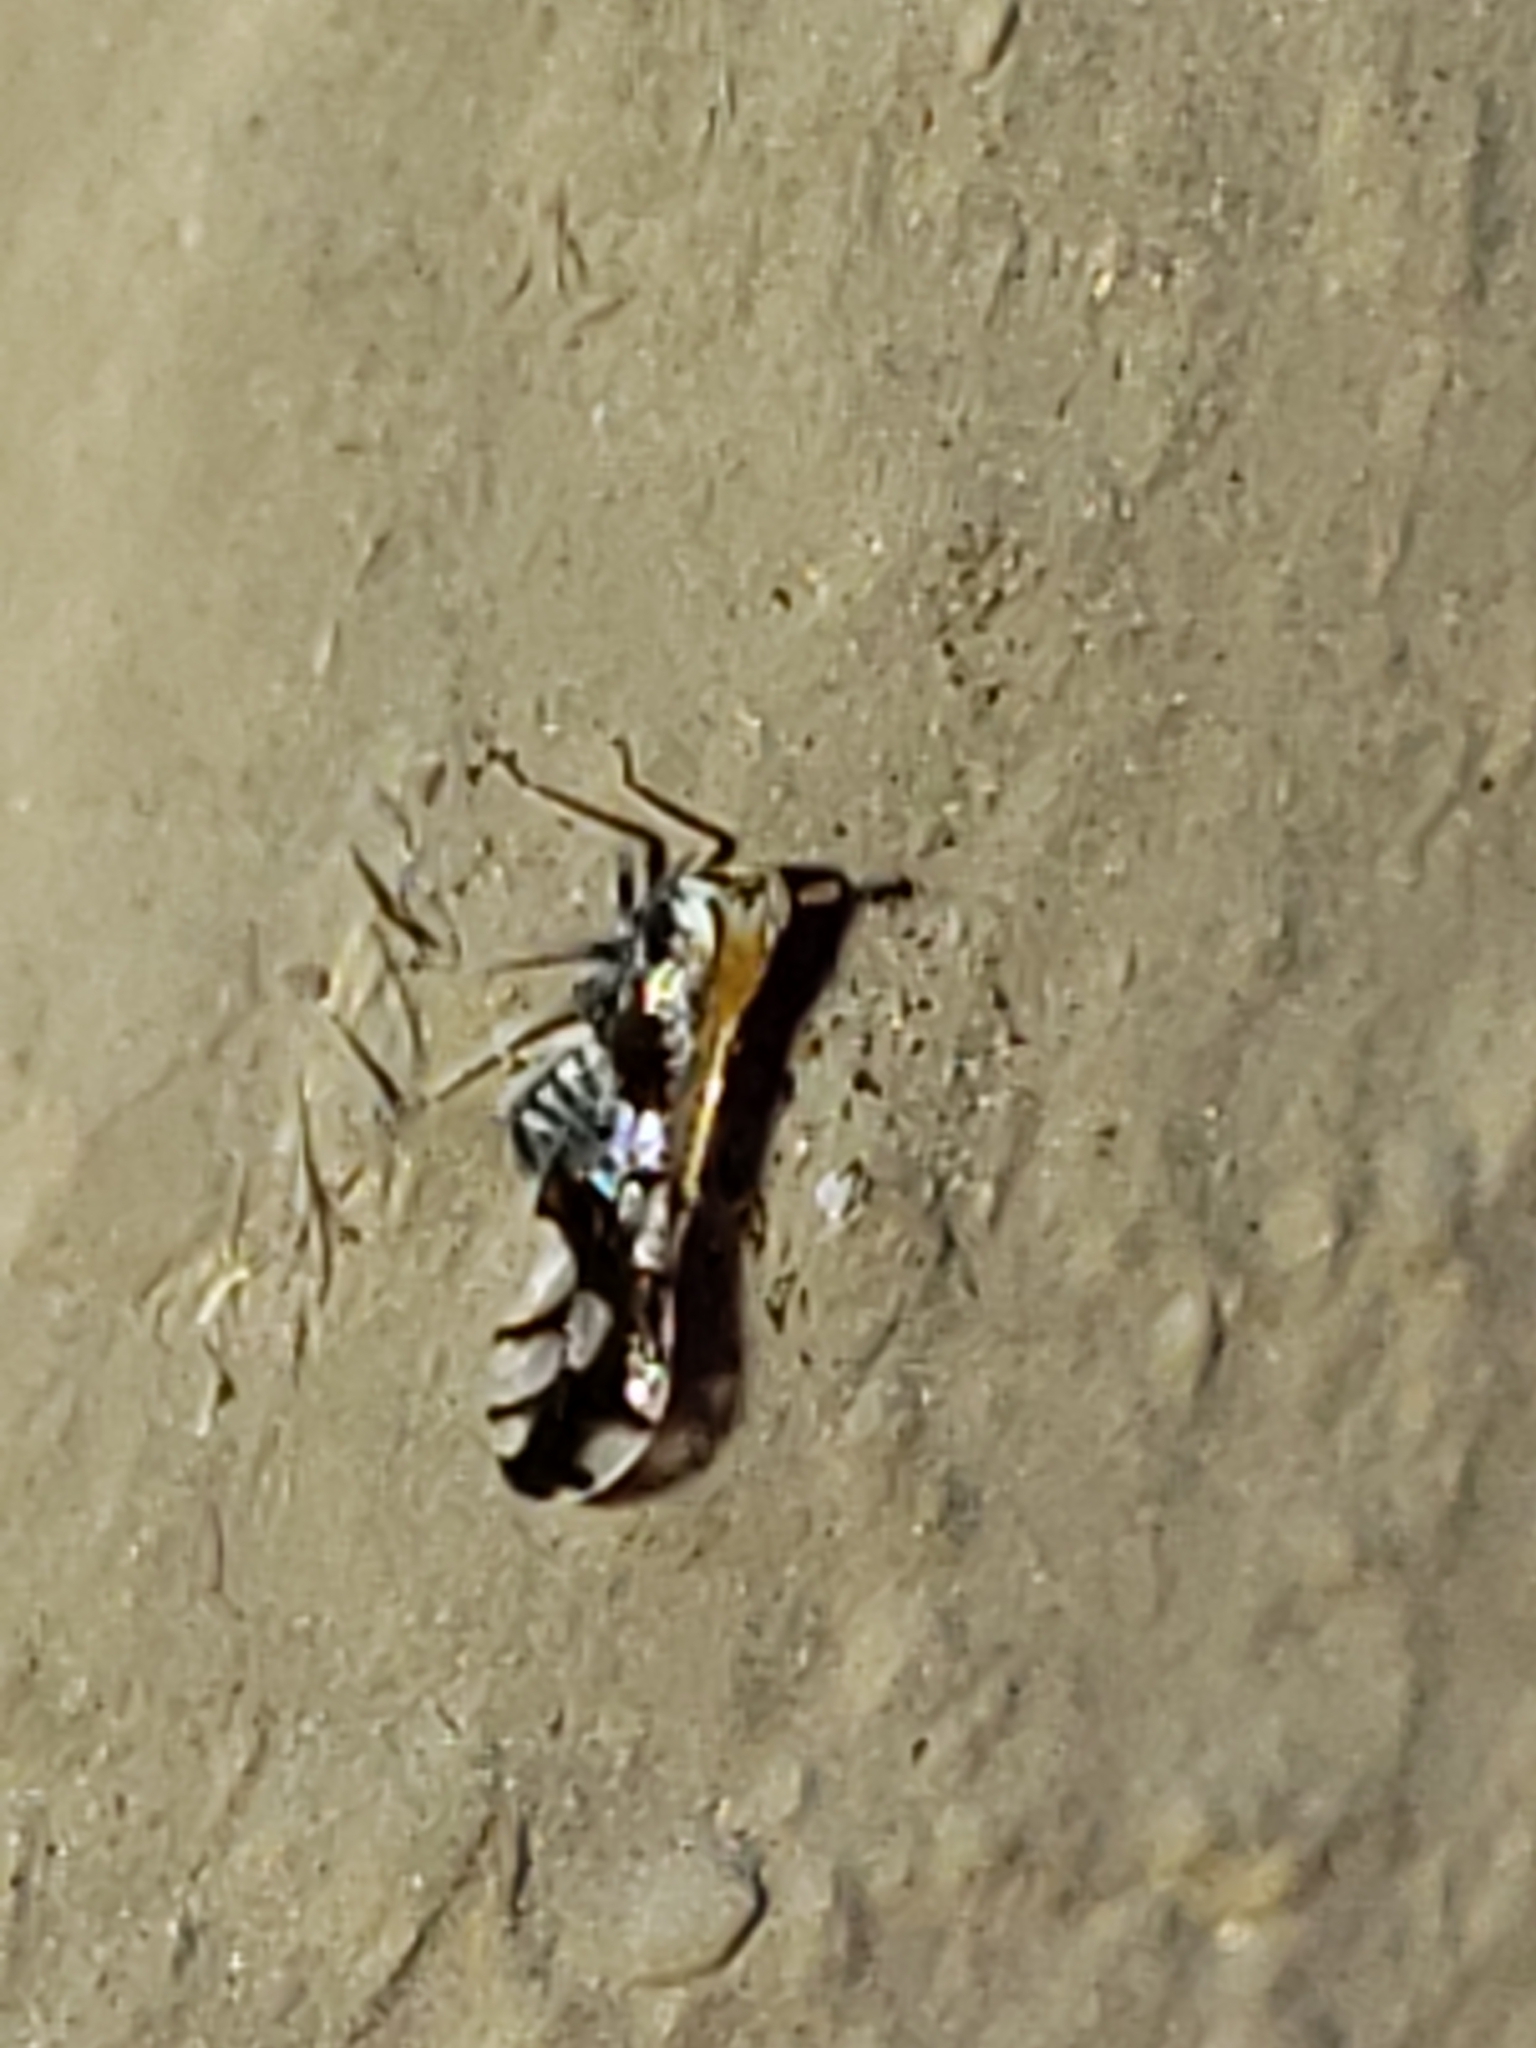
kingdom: Animalia
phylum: Arthropoda
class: Insecta
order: Hemiptera
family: Delphacidae
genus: Liburniella
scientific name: Liburniella ornata
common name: Ornate planthopper
